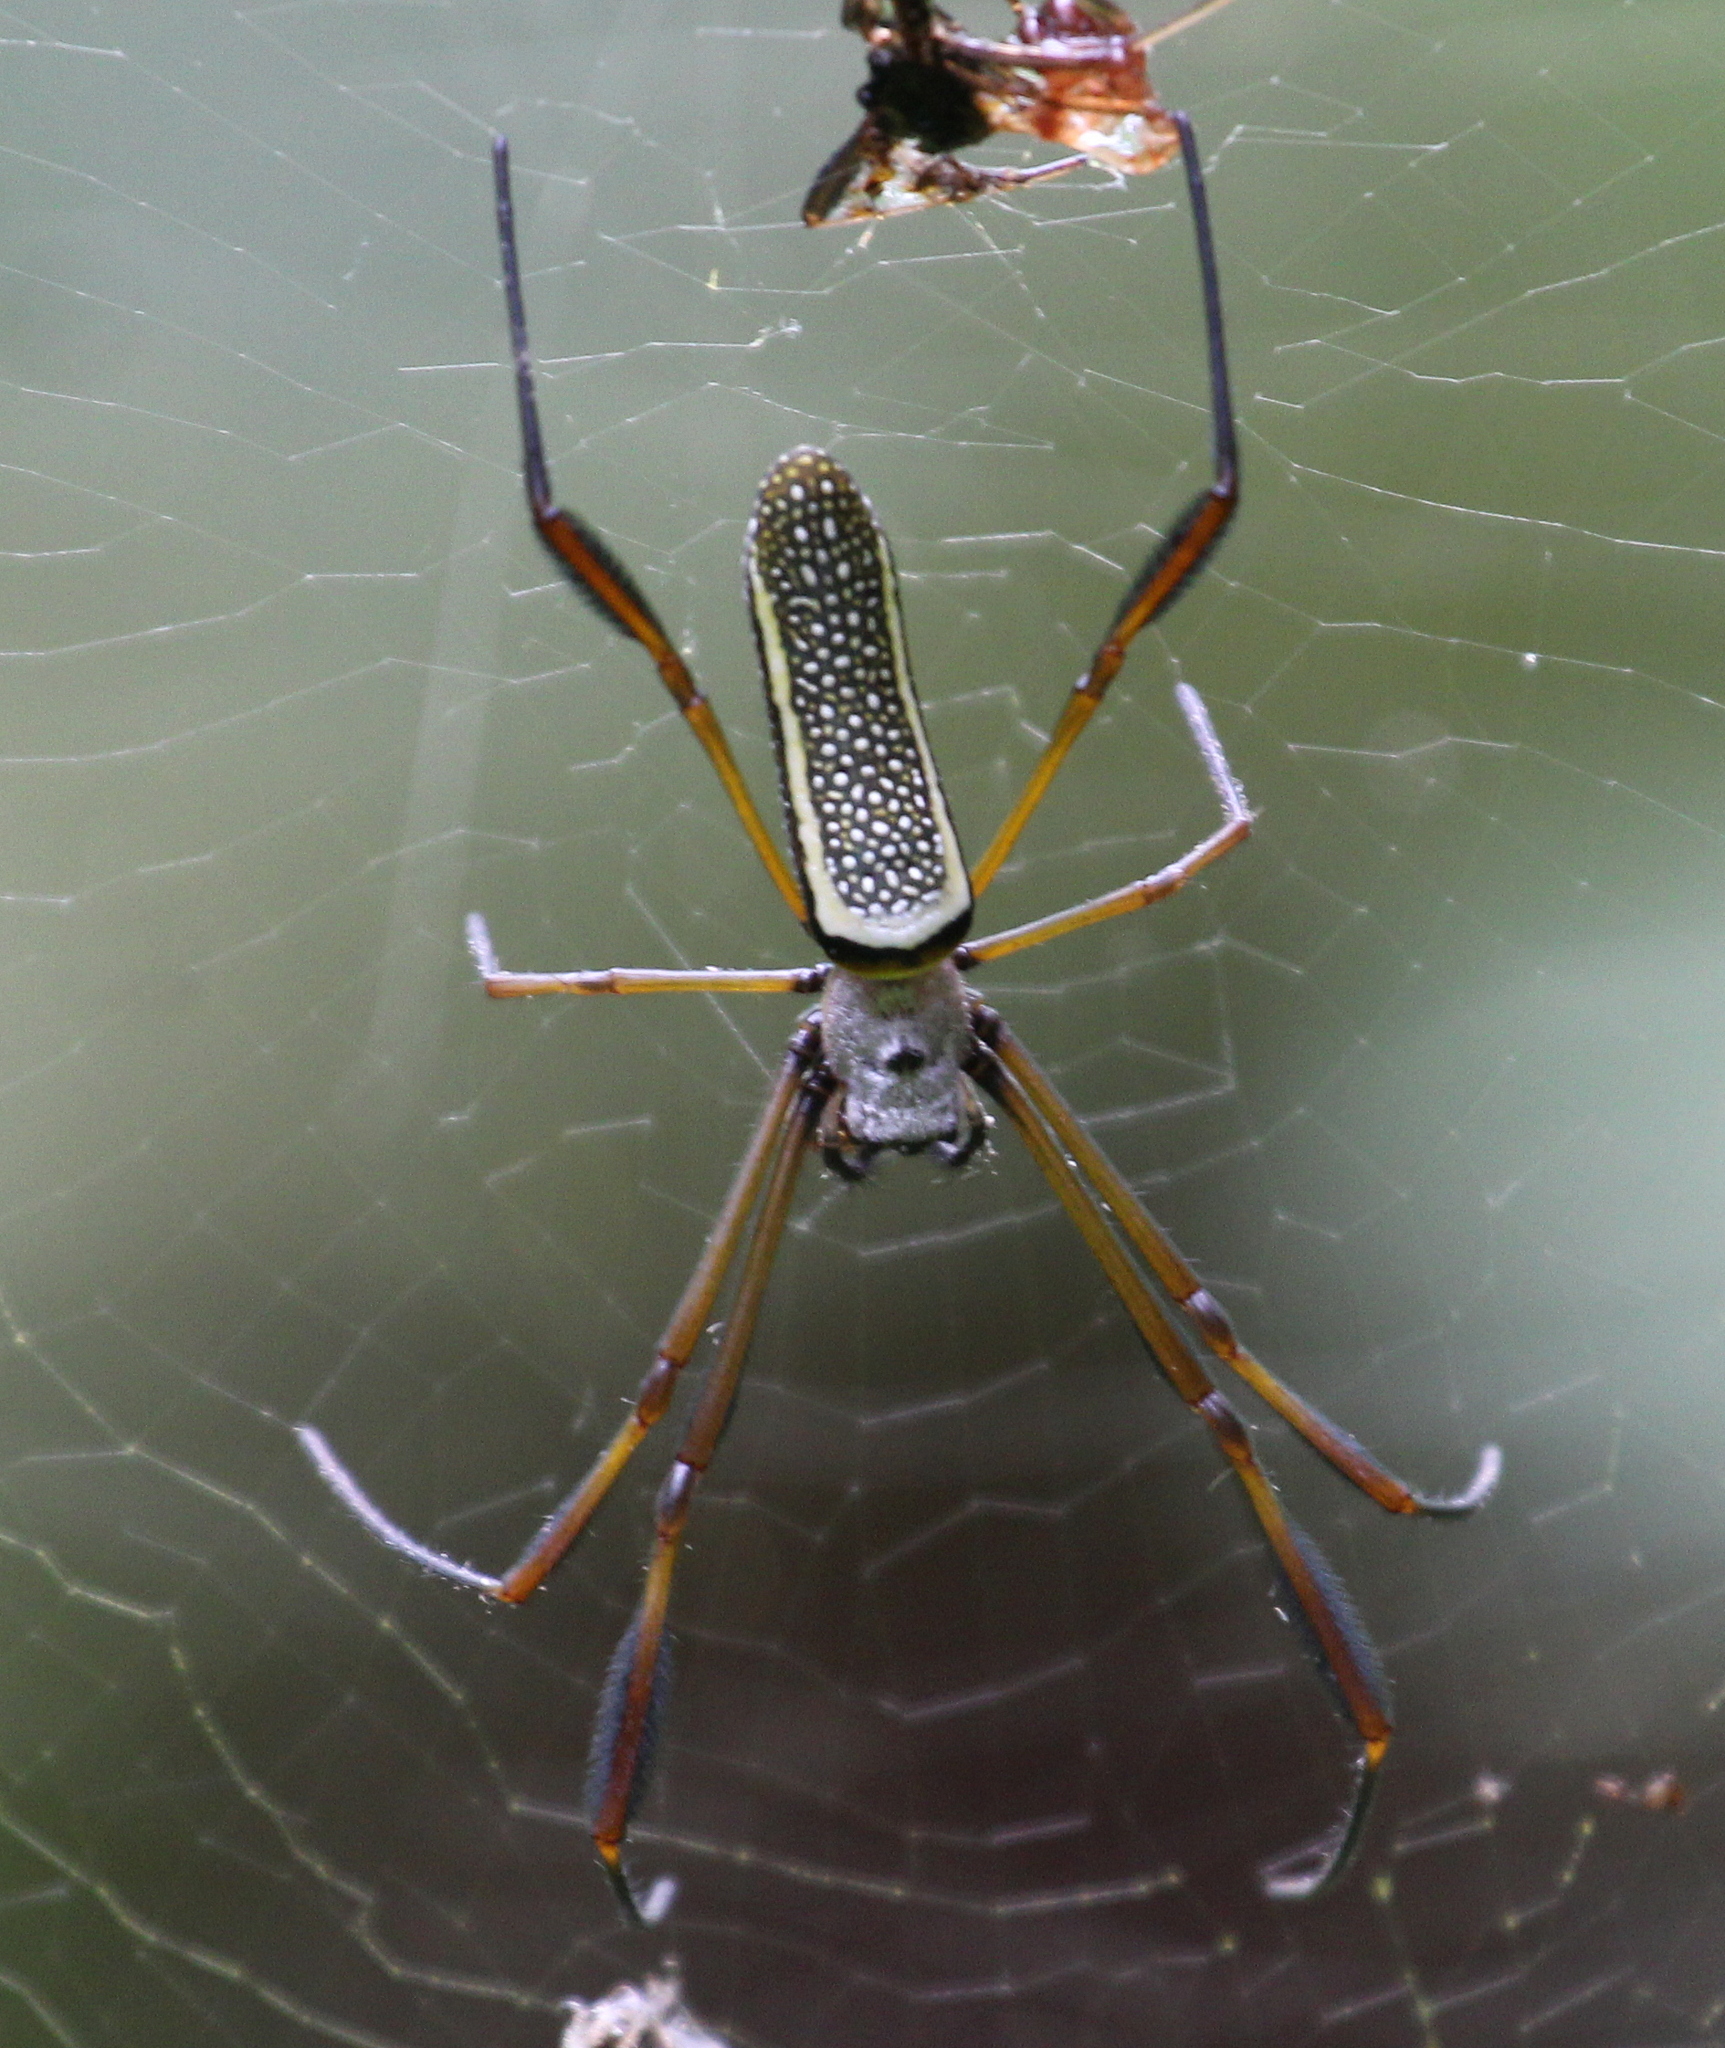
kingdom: Animalia
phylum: Arthropoda
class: Arachnida
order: Araneae
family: Araneidae
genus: Trichonephila
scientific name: Trichonephila clavipes
